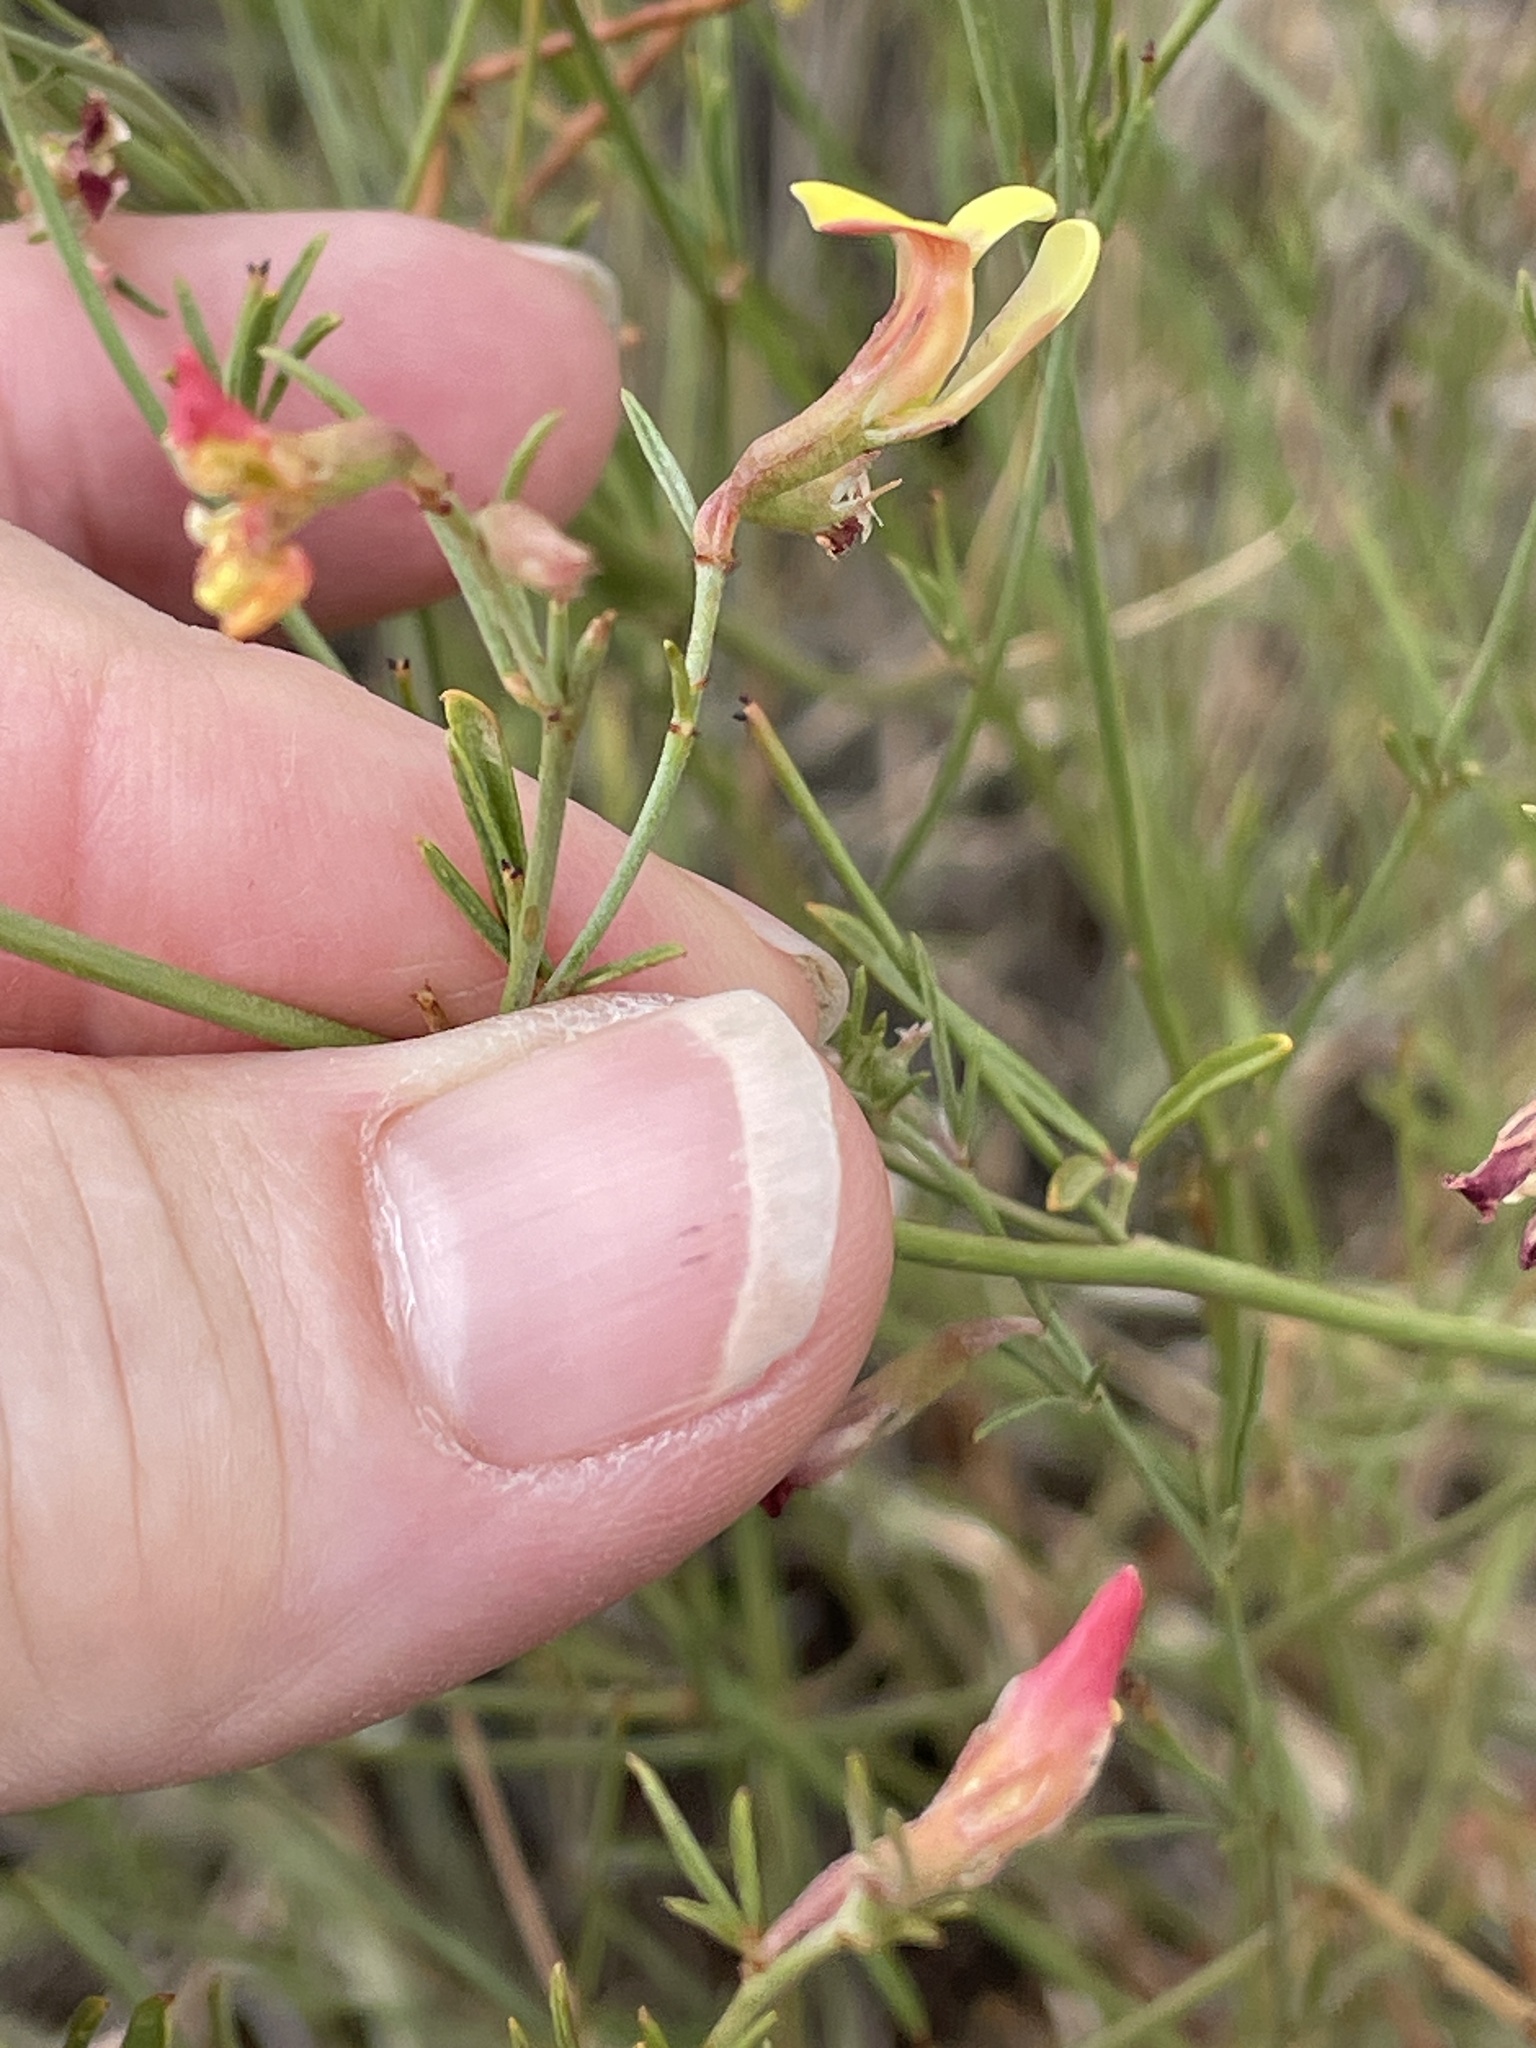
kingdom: Plantae
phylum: Tracheophyta
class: Magnoliopsida
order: Fabales
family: Fabaceae
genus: Acmispon
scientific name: Acmispon wrightii
